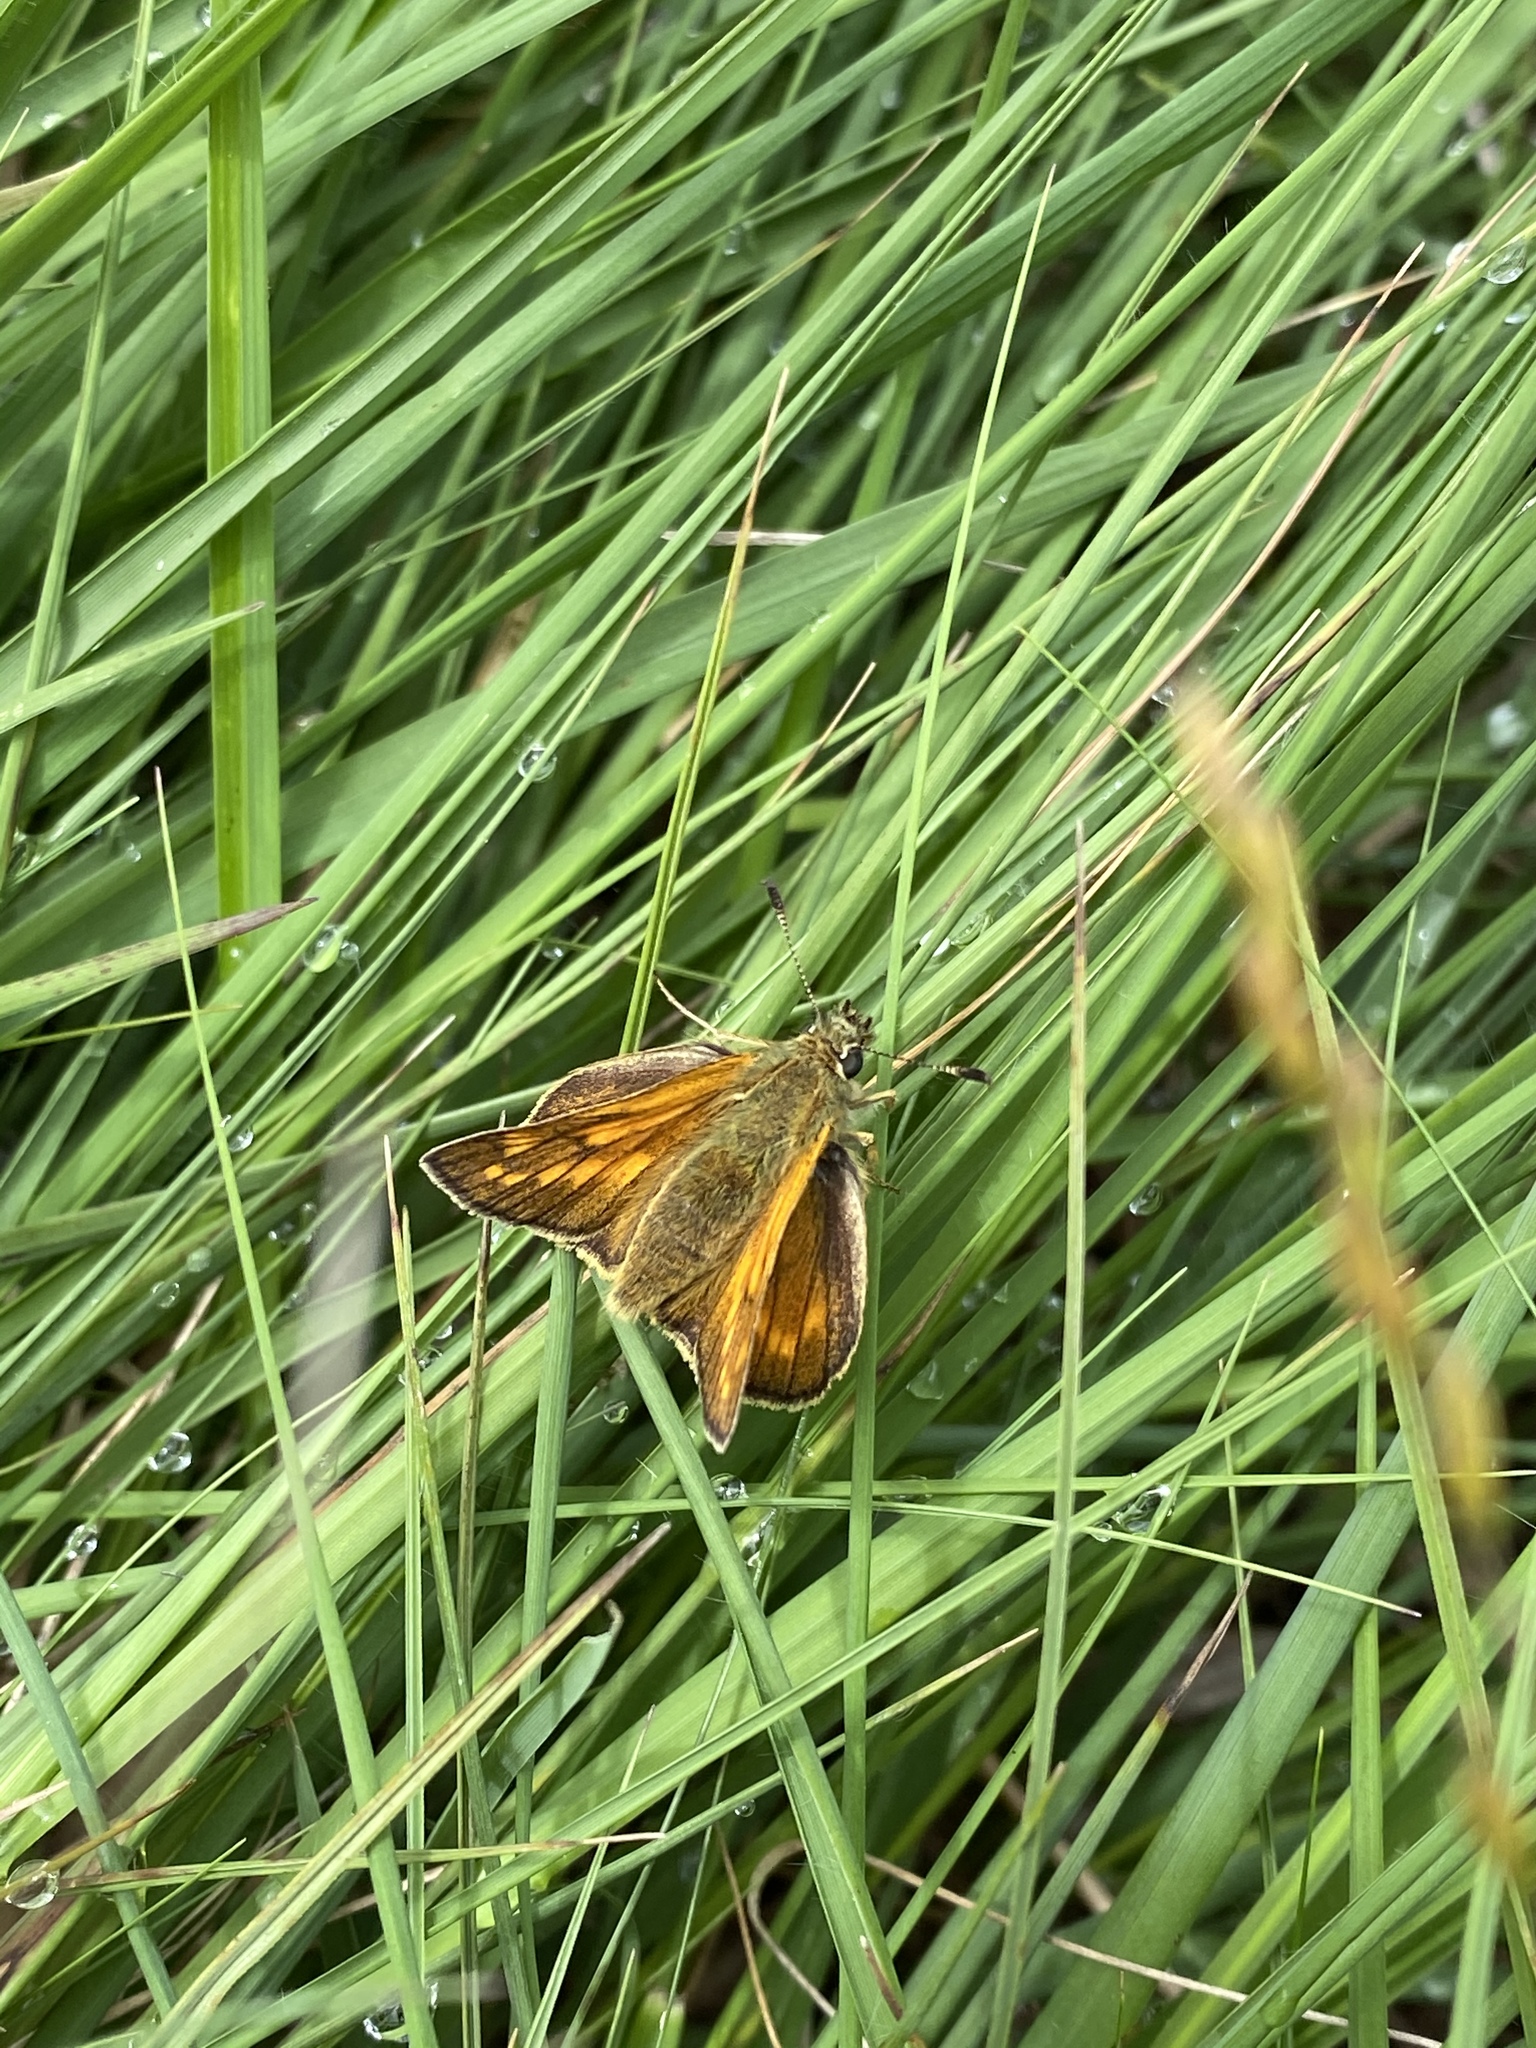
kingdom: Animalia
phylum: Arthropoda
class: Insecta
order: Lepidoptera
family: Hesperiidae
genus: Ochlodes
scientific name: Ochlodes venata
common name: Large skipper
